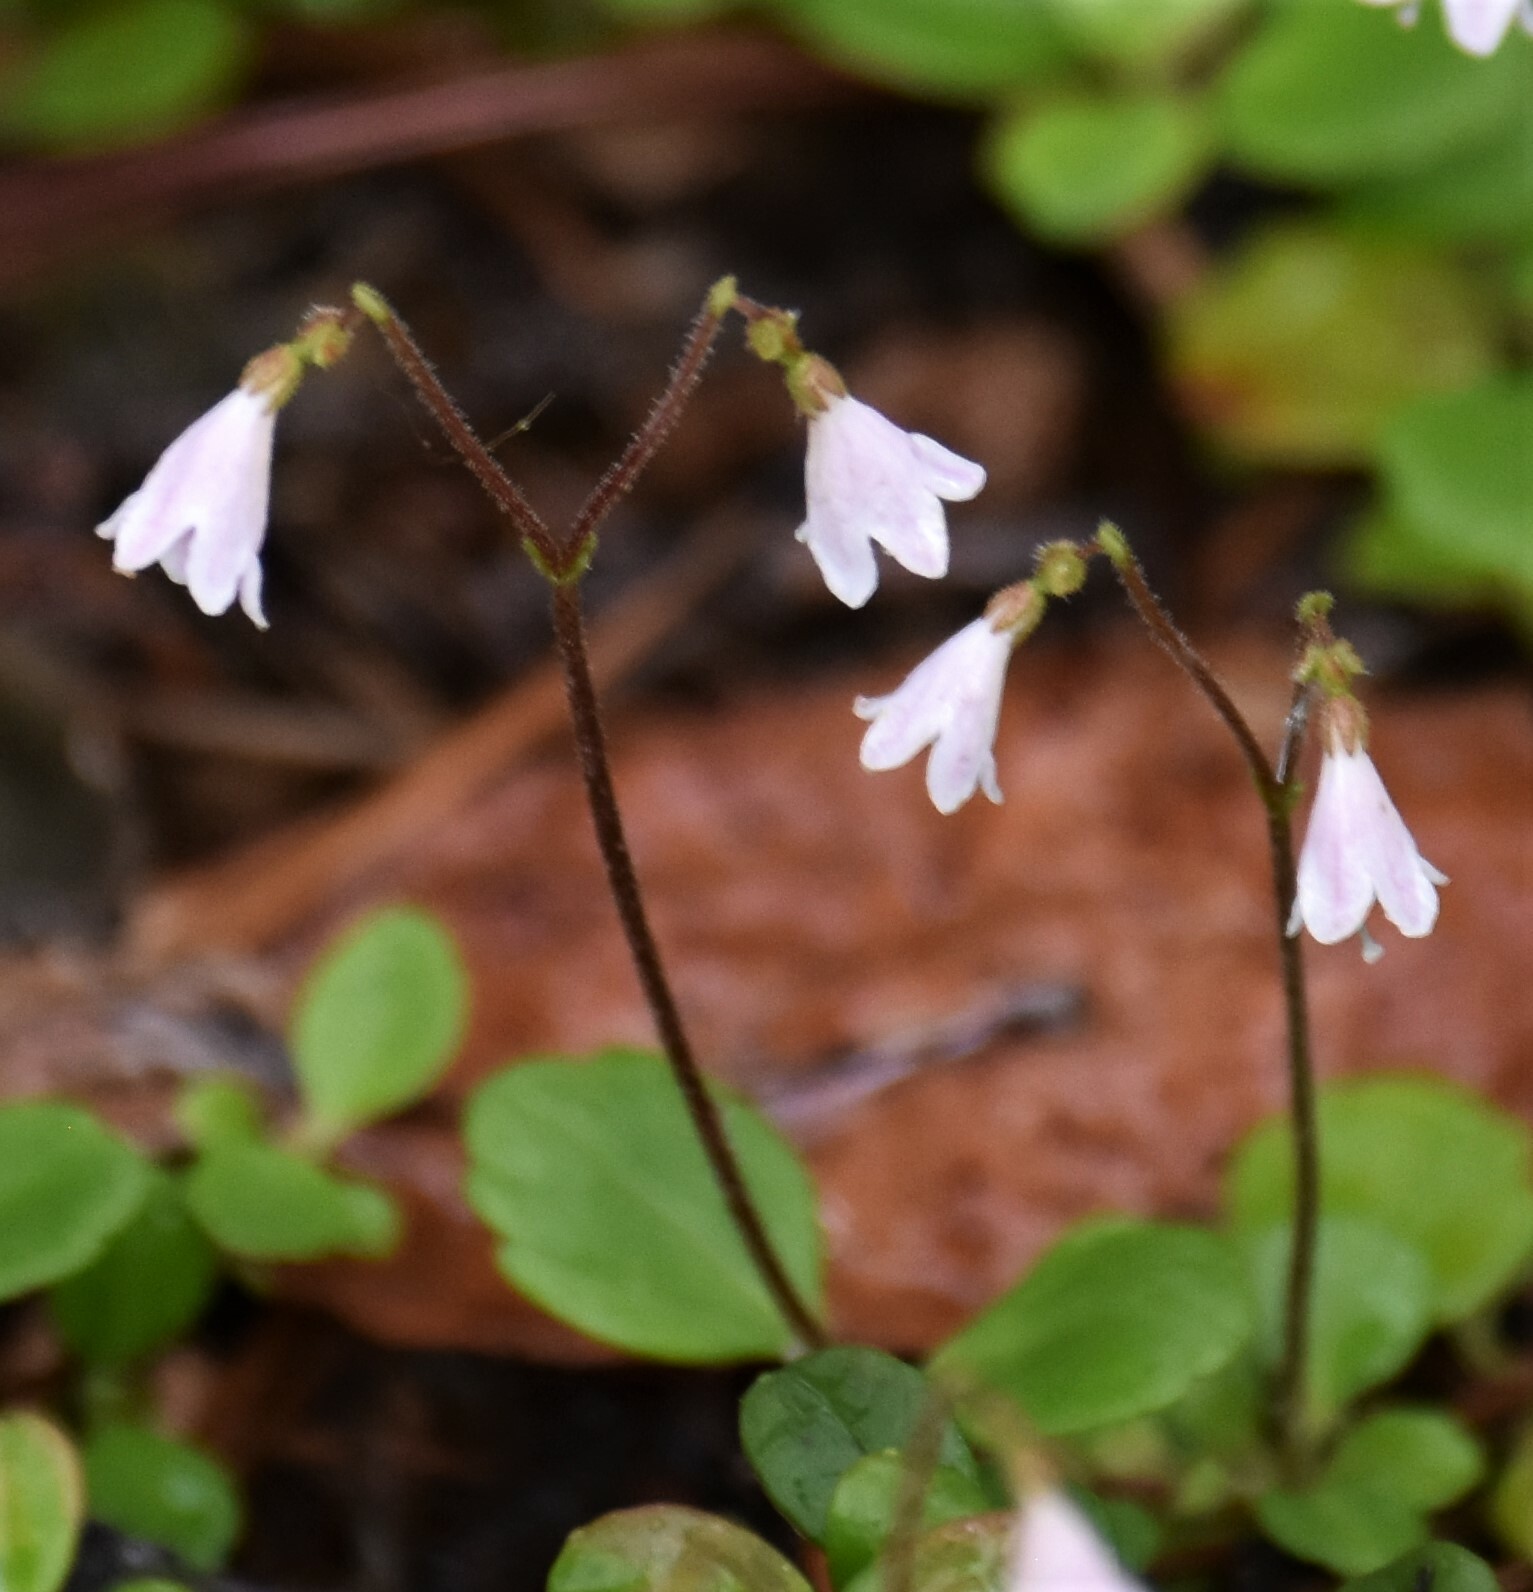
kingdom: Plantae
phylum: Tracheophyta
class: Magnoliopsida
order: Dipsacales
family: Caprifoliaceae
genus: Linnaea
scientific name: Linnaea borealis
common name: Twinflower
